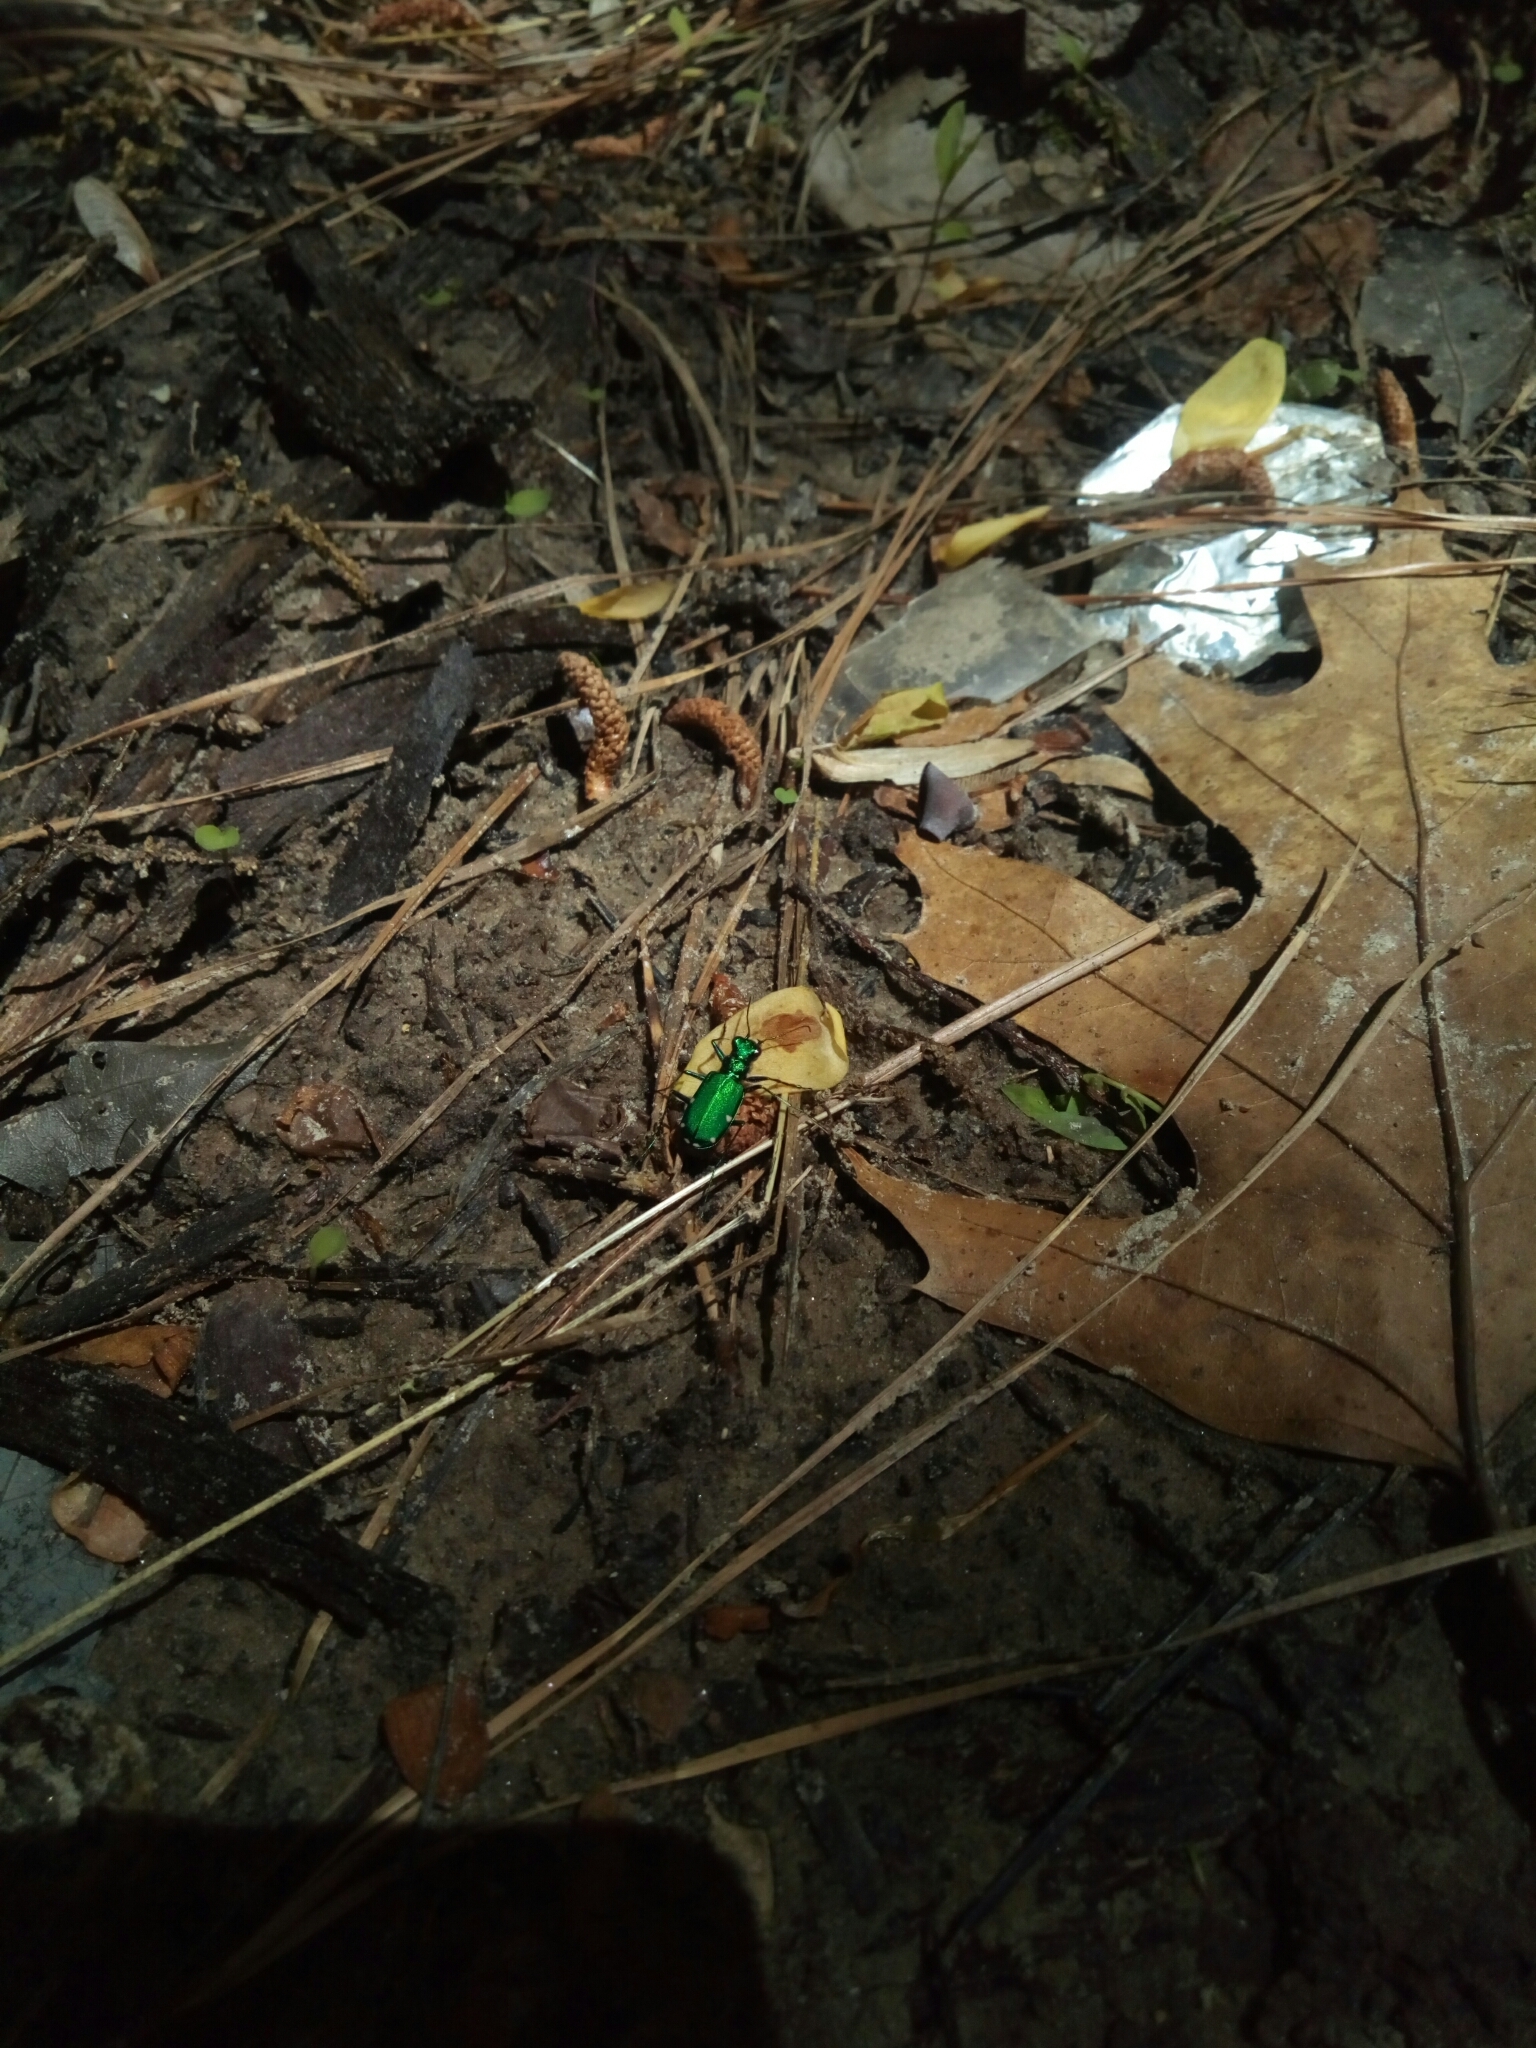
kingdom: Animalia
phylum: Arthropoda
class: Insecta
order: Coleoptera
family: Carabidae
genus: Cicindela
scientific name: Cicindela sexguttata
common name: Six-spotted tiger beetle
